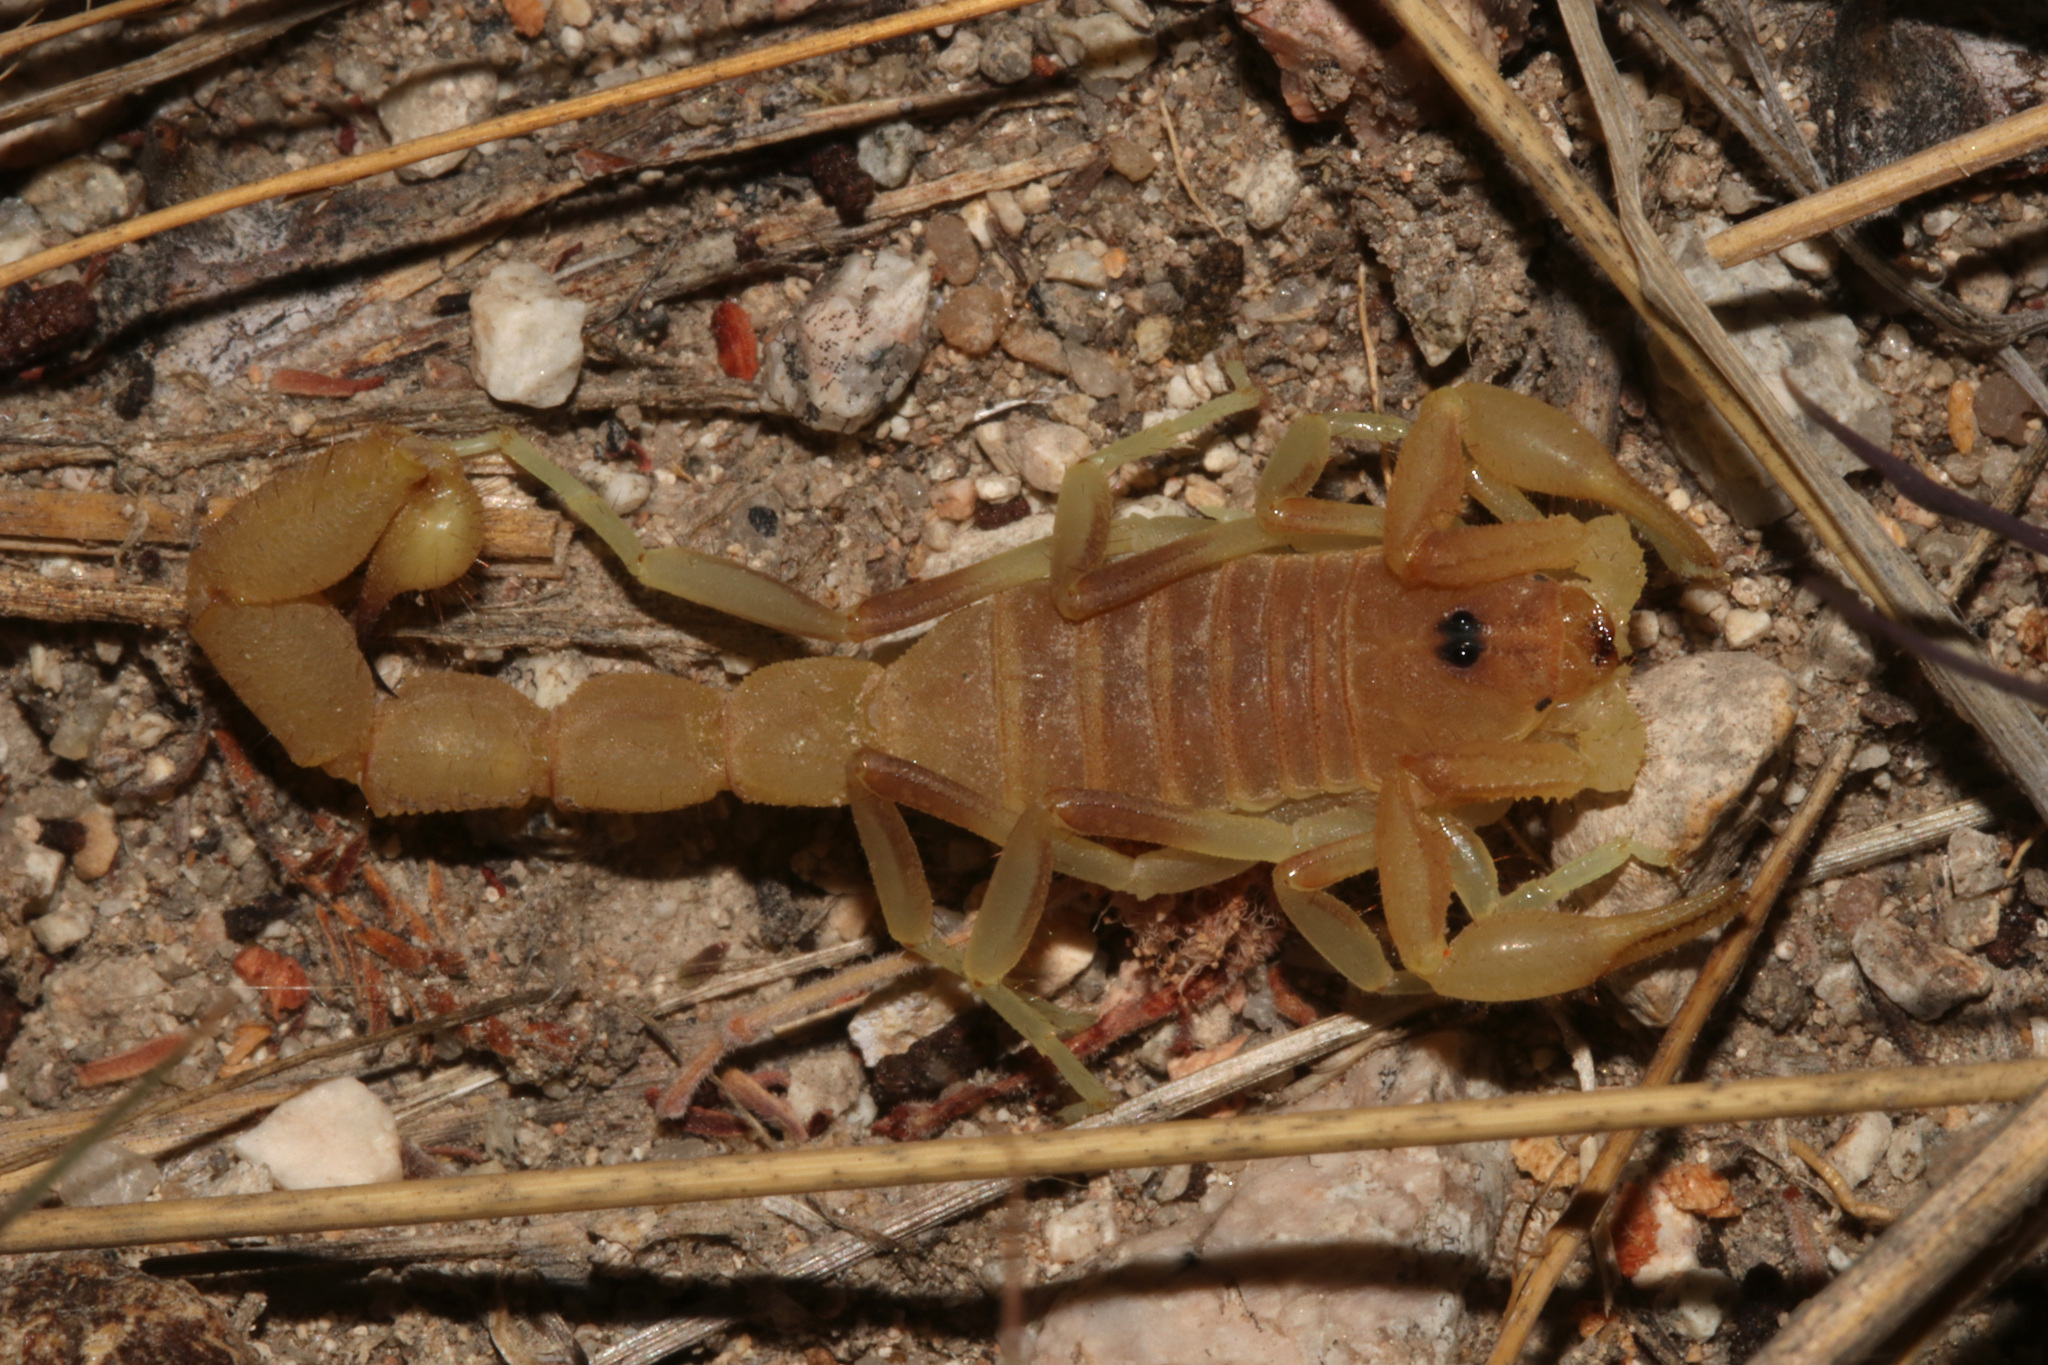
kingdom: Animalia
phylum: Arthropoda
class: Arachnida
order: Scorpiones
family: Buthidae
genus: Parabuthus
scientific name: Parabuthus brevimanus
